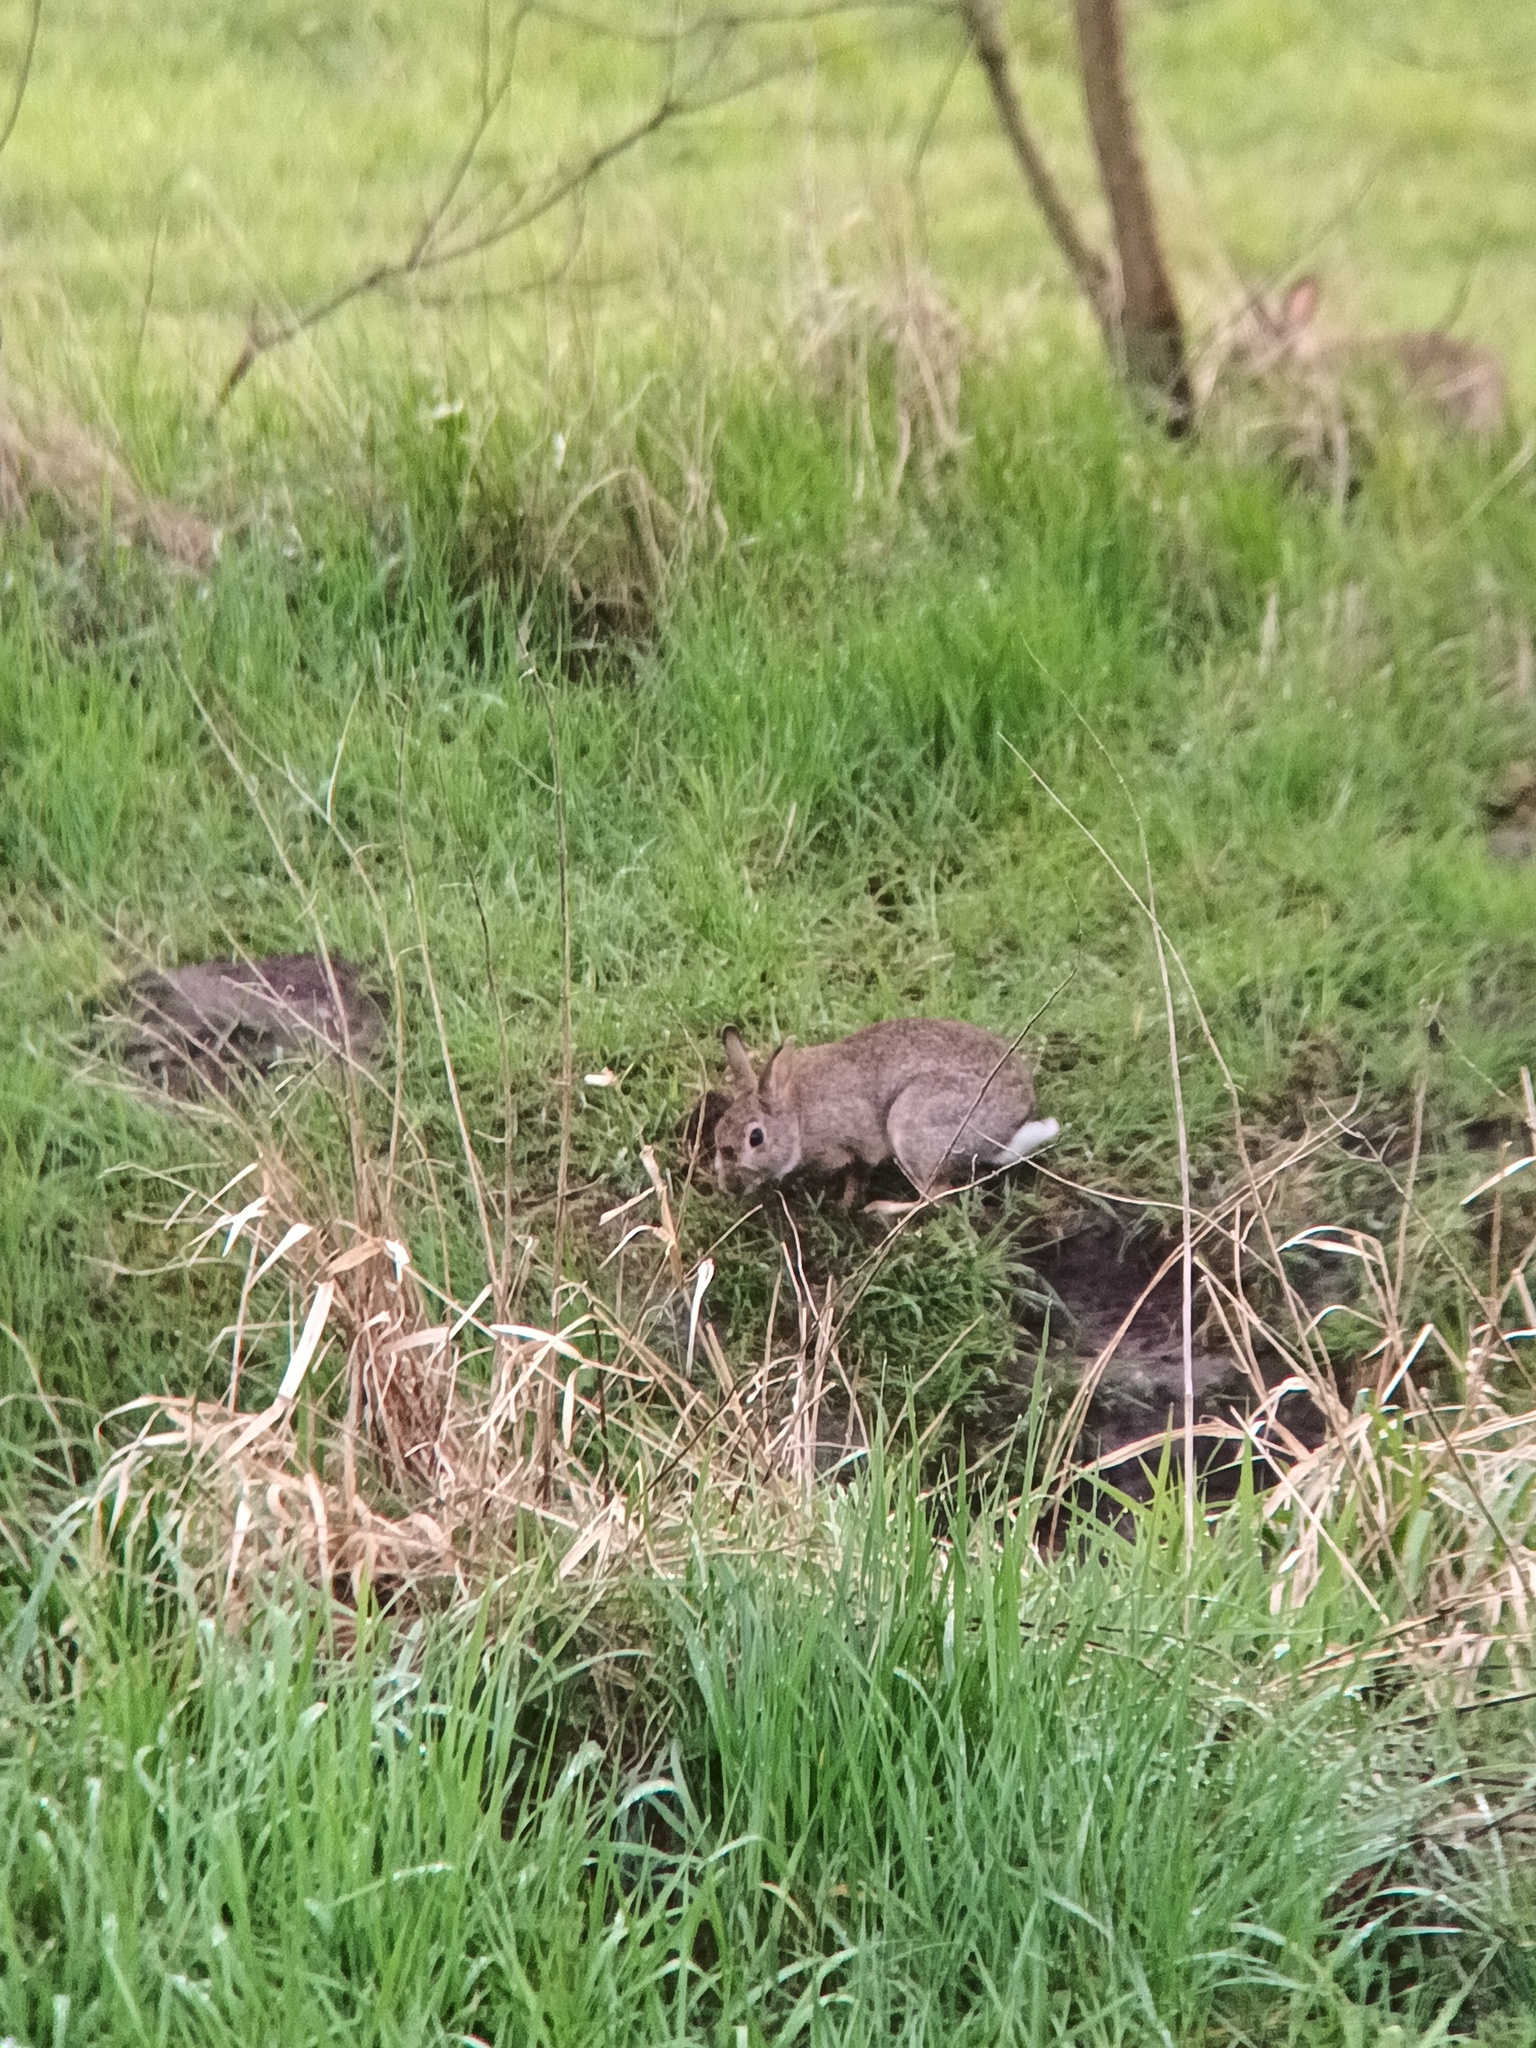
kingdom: Animalia
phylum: Chordata
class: Mammalia
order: Lagomorpha
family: Leporidae
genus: Oryctolagus
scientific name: Oryctolagus cuniculus
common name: European rabbit
